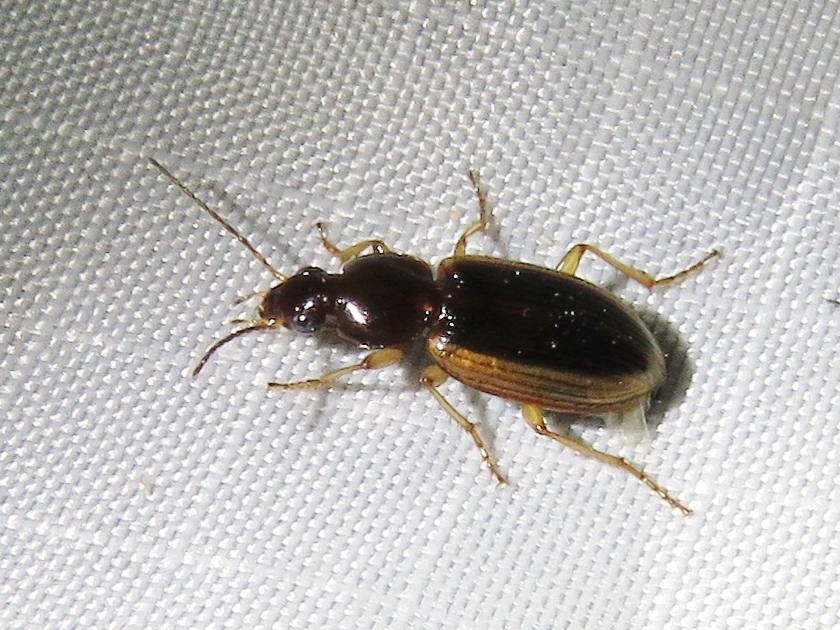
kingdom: Animalia
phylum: Arthropoda
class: Insecta
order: Coleoptera
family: Carabidae
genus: Agonum
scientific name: Agonum pallipes
